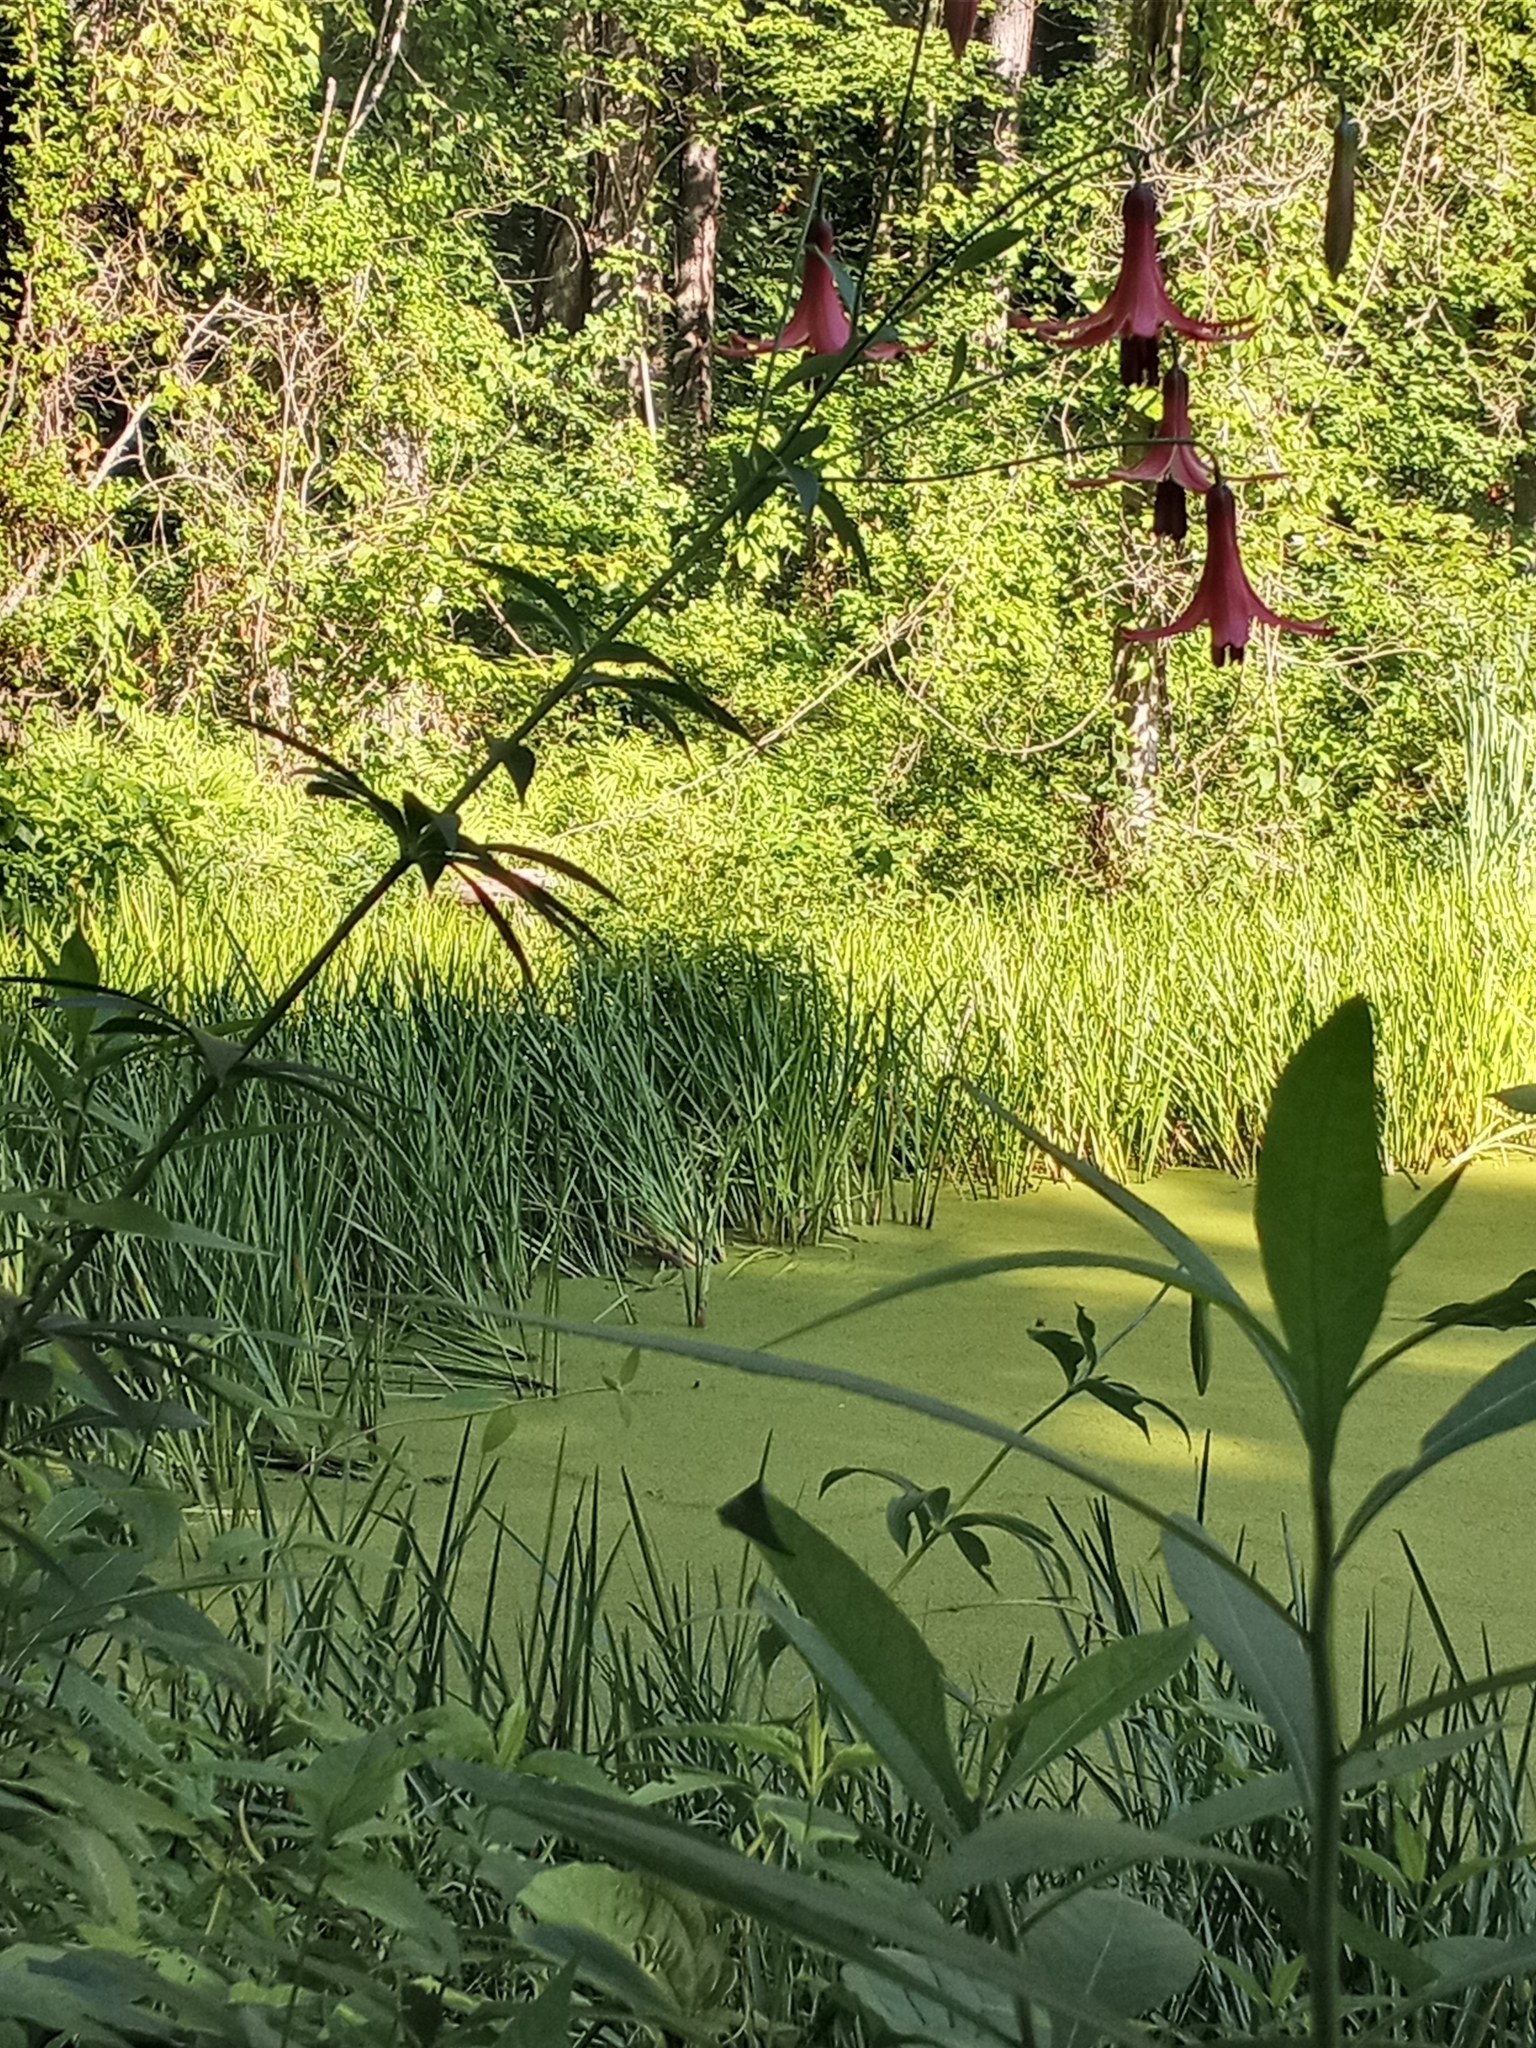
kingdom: Plantae
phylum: Tracheophyta
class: Liliopsida
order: Liliales
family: Liliaceae
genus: Lilium
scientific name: Lilium canadense
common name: Canada lily
